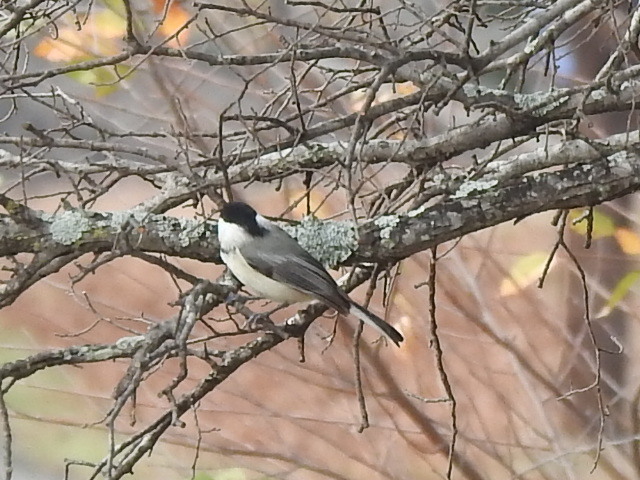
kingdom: Animalia
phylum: Chordata
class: Aves
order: Passeriformes
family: Paridae
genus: Poecile
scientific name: Poecile carolinensis
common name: Carolina chickadee
